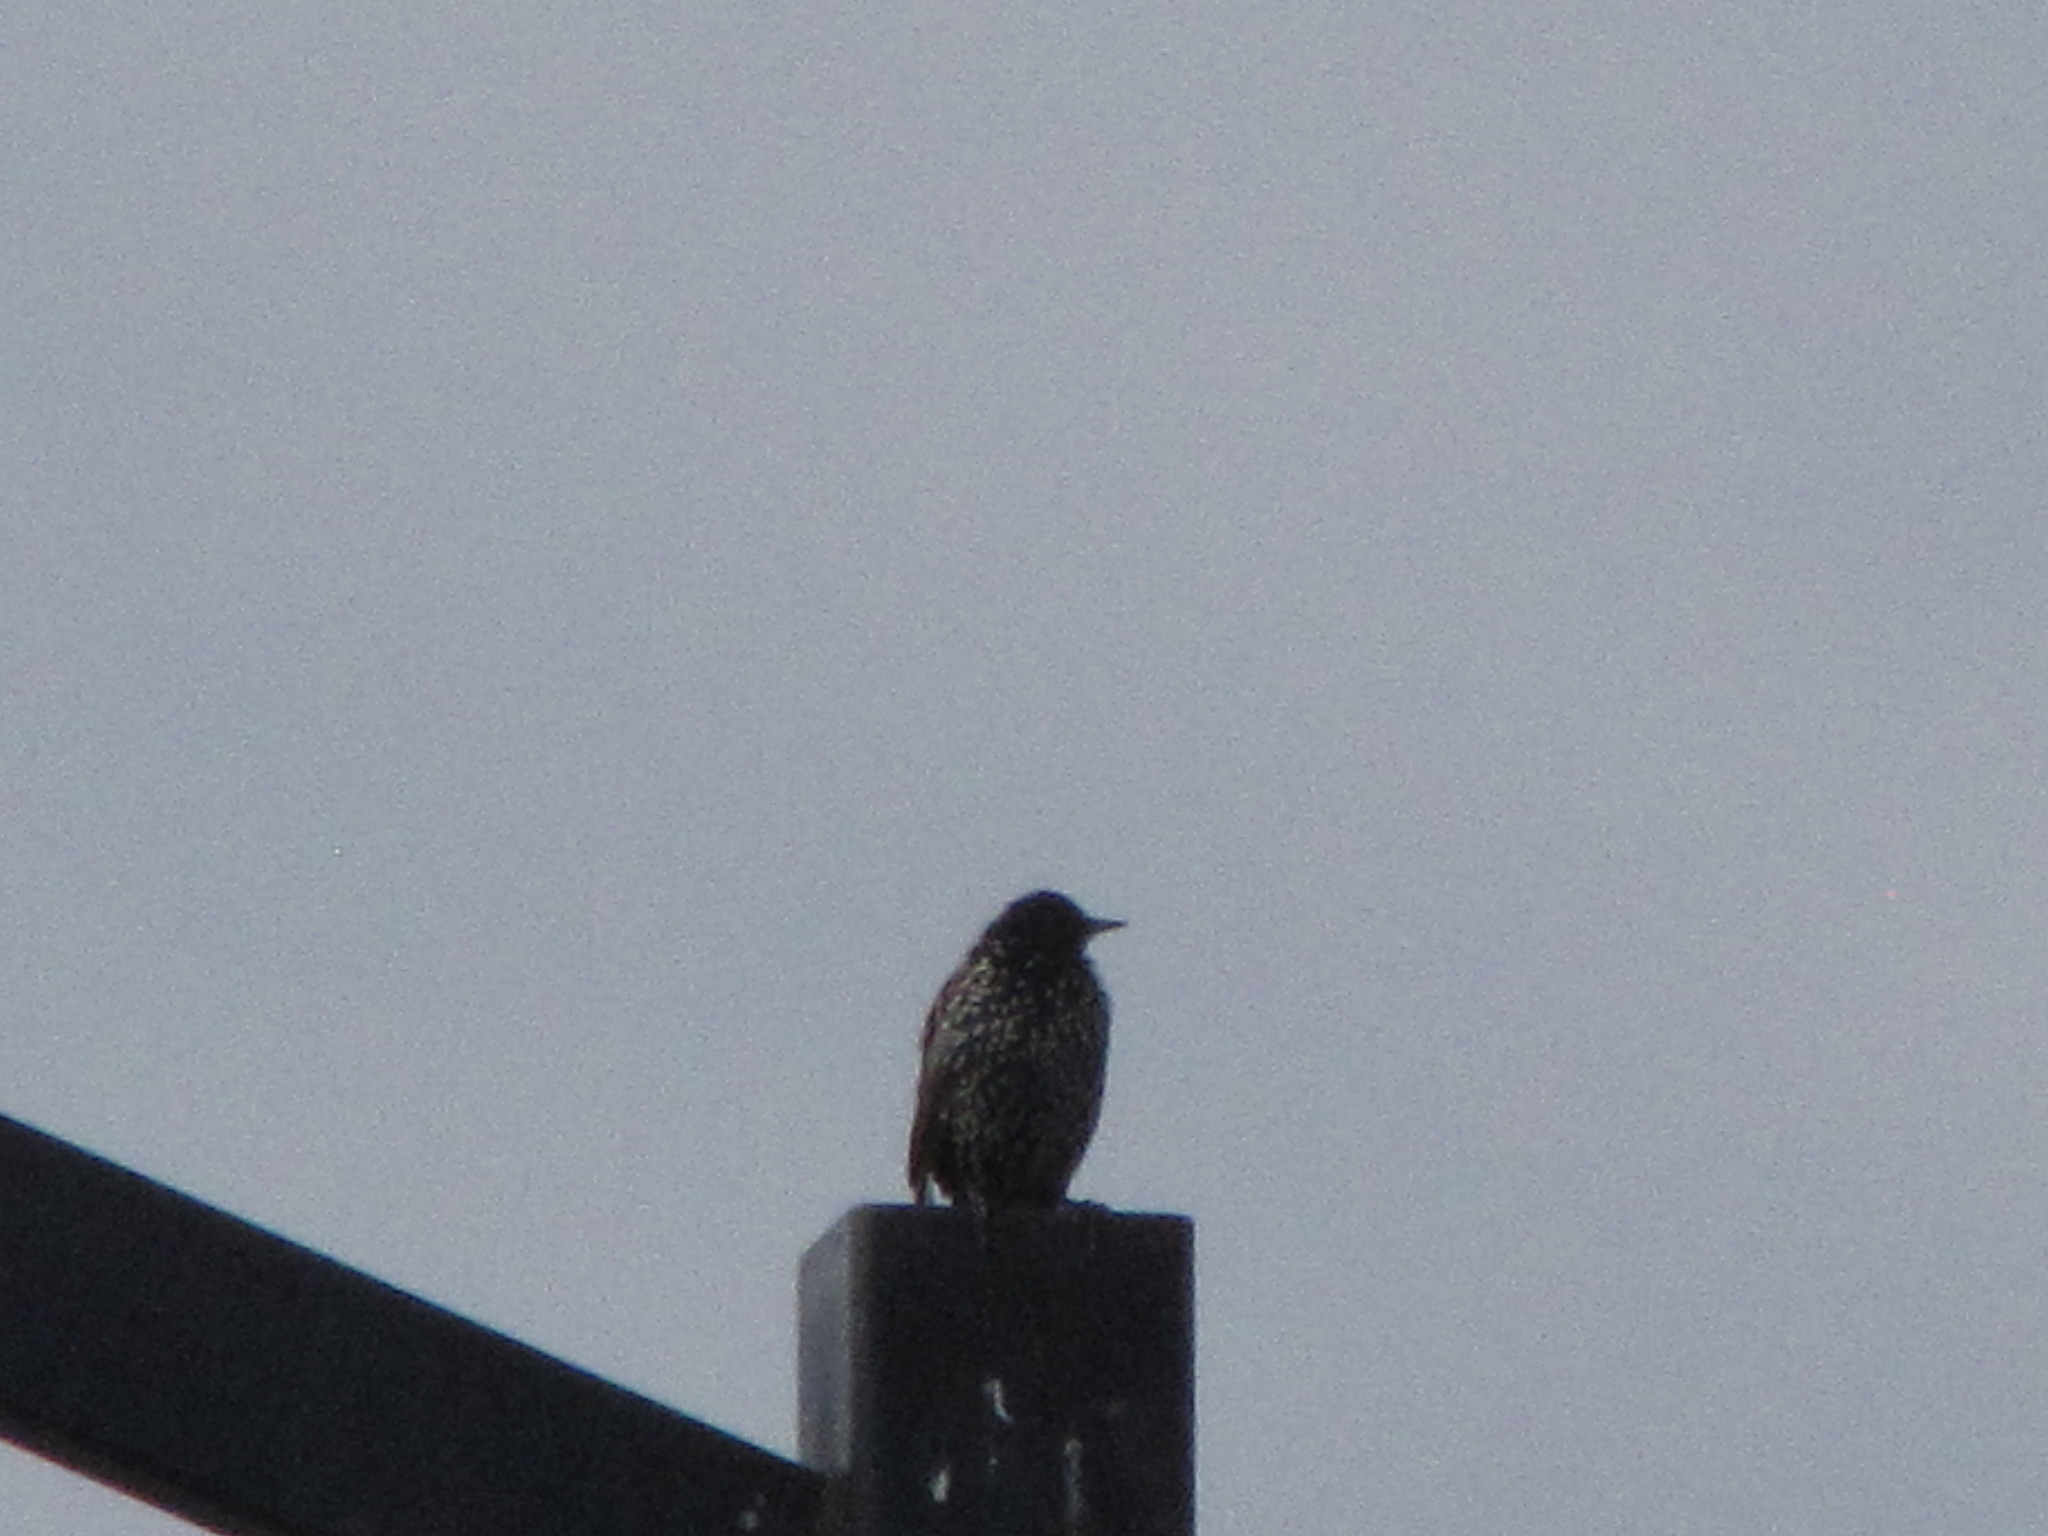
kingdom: Animalia
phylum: Chordata
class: Aves
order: Passeriformes
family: Sturnidae
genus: Sturnus
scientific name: Sturnus vulgaris
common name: Common starling
